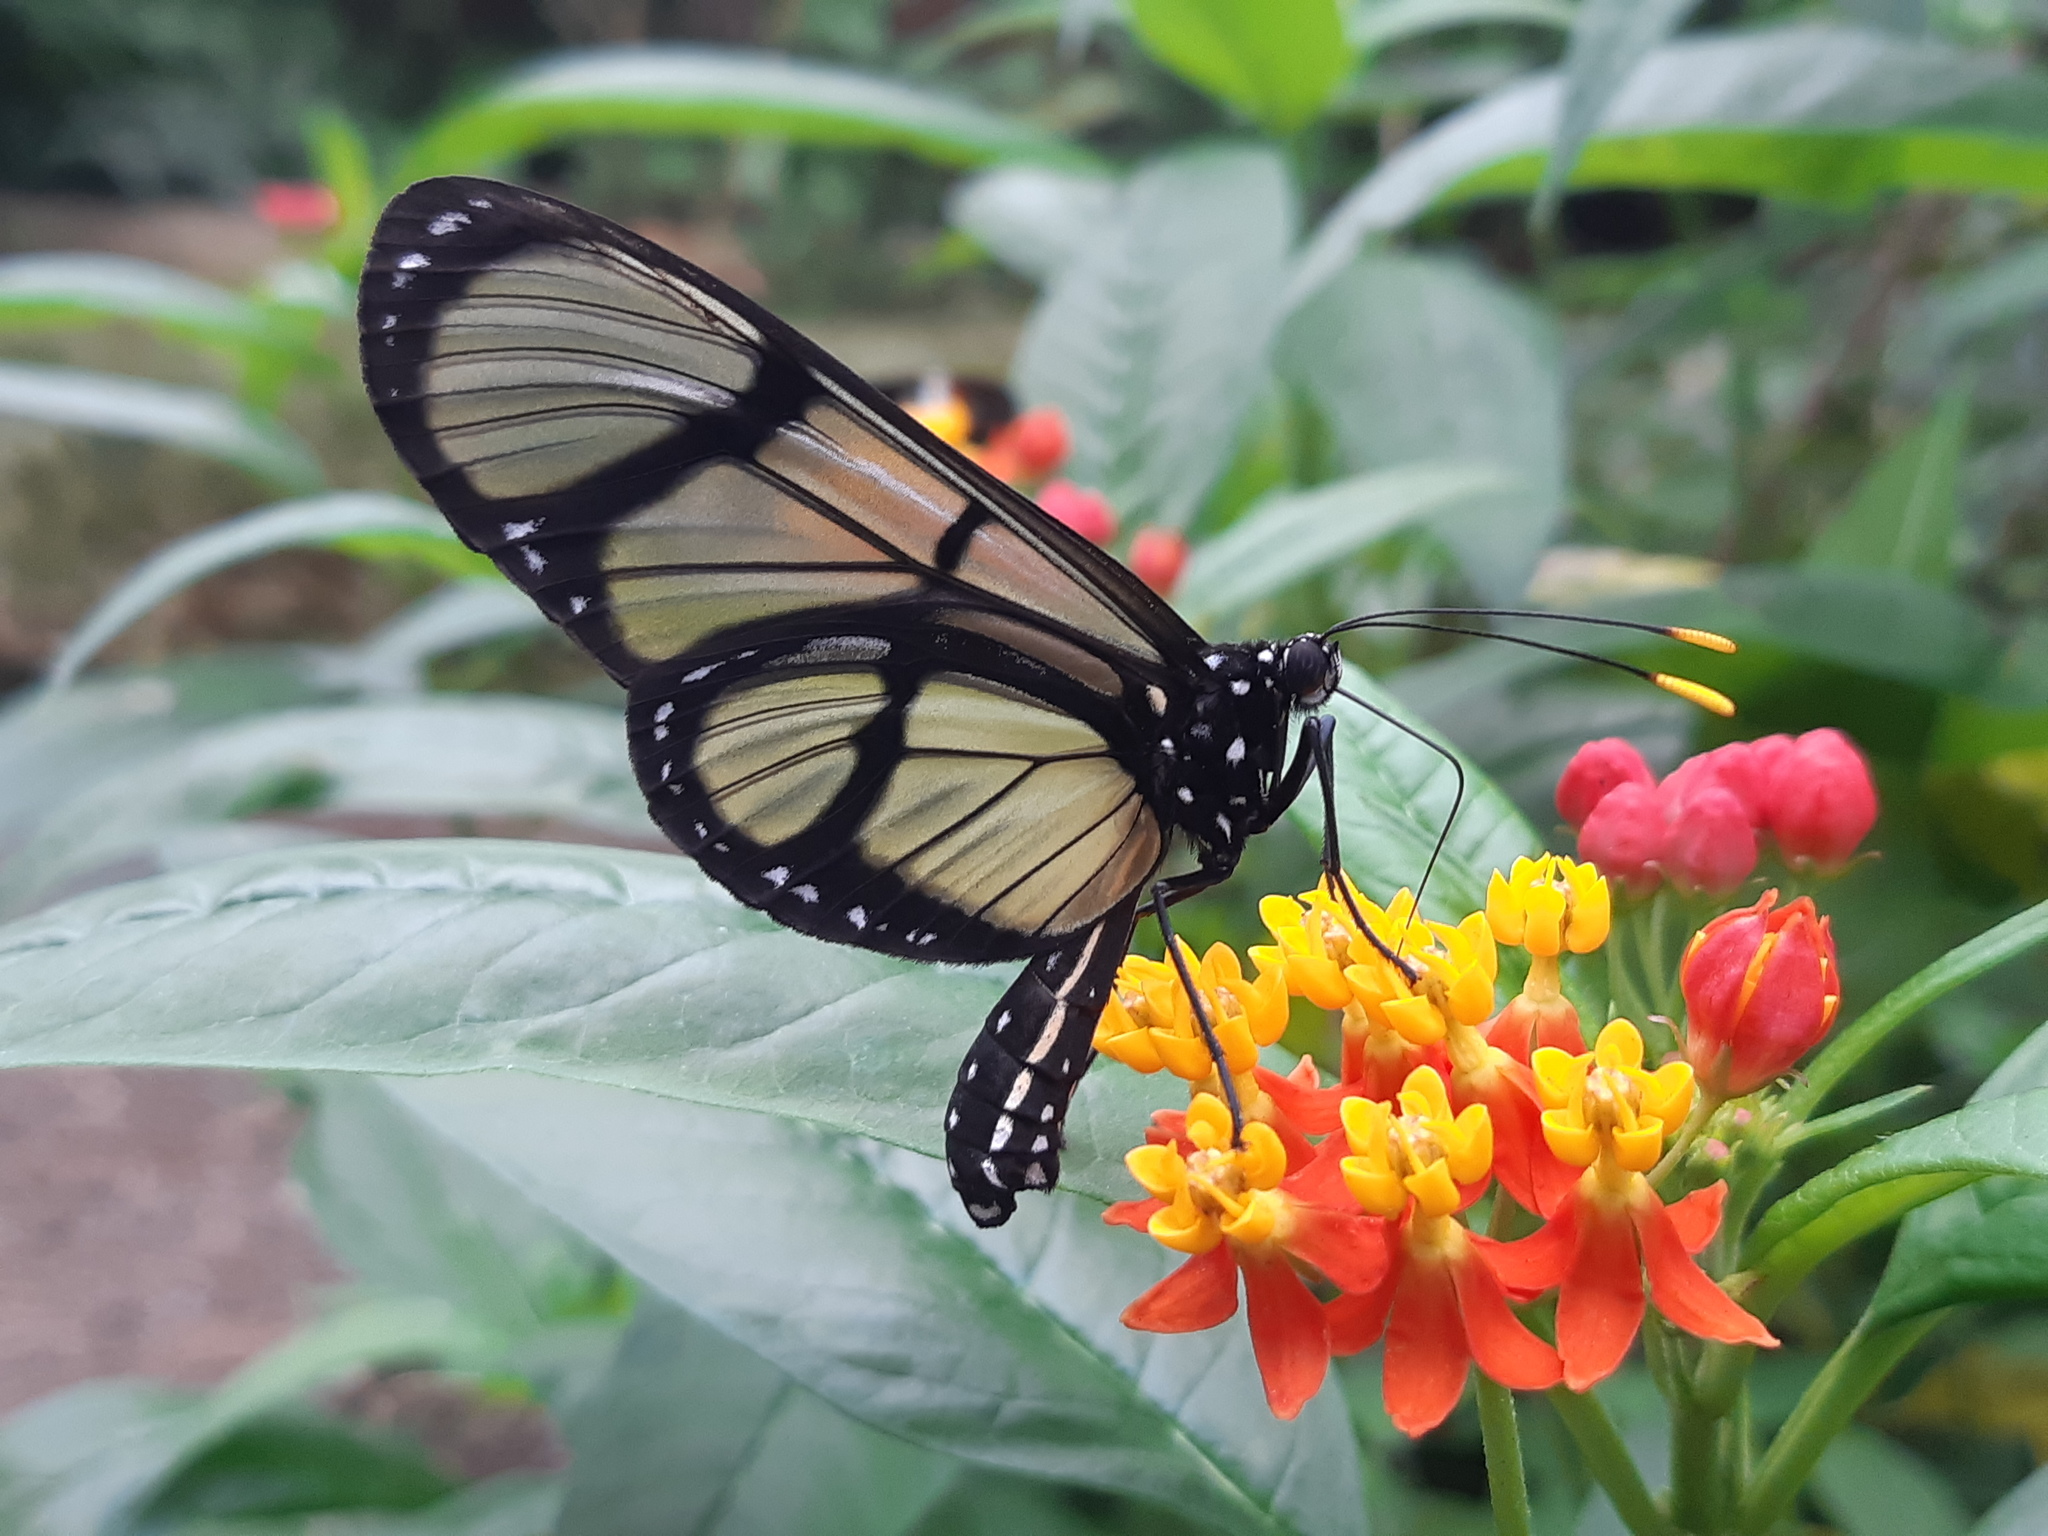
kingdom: Animalia
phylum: Arthropoda
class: Insecta
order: Lepidoptera
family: Nymphalidae
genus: Methona
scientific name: Methona confusa
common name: Confusa tigerwing
